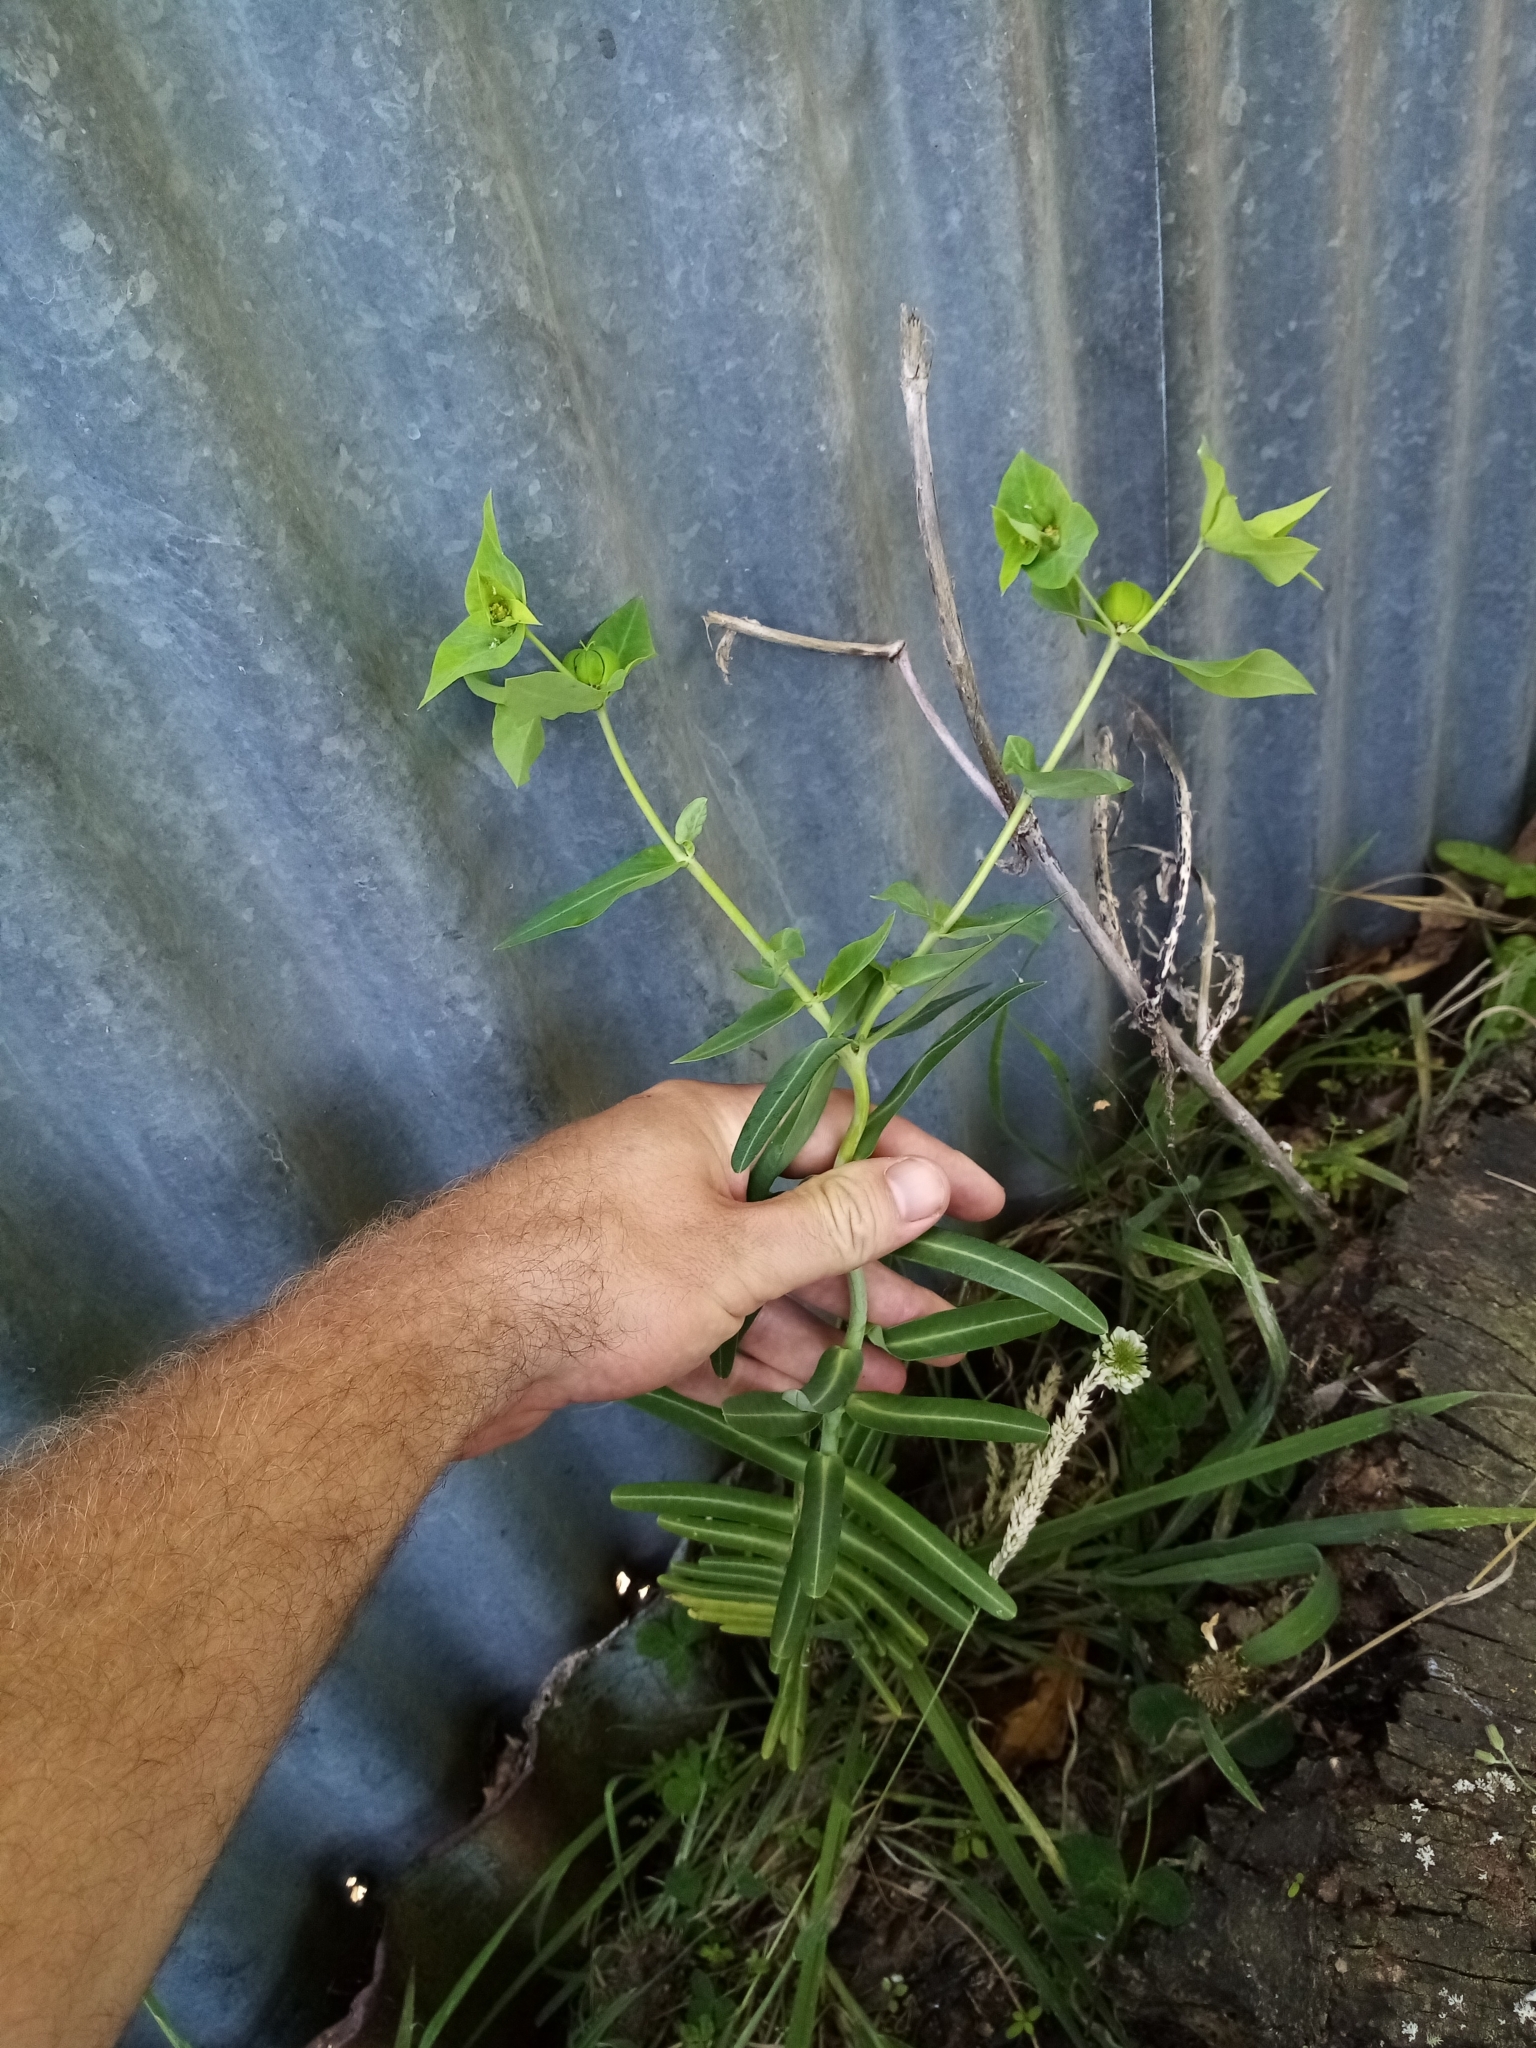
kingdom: Plantae
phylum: Tracheophyta
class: Magnoliopsida
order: Malpighiales
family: Euphorbiaceae
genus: Euphorbia
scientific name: Euphorbia lathyris
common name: Caper spurge
